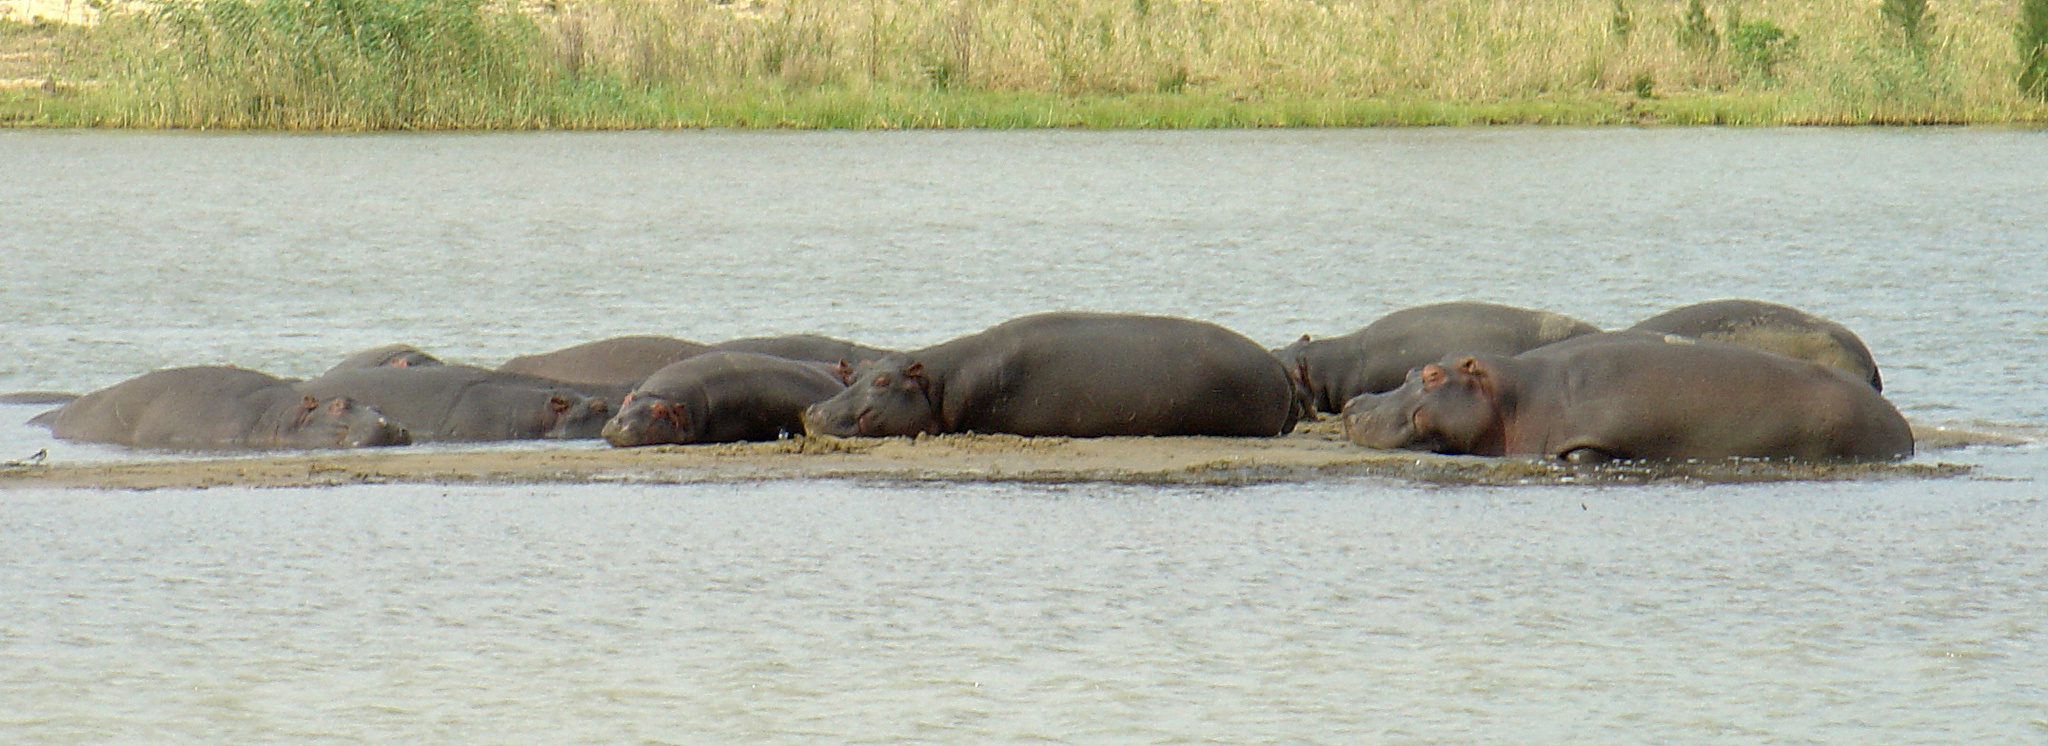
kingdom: Animalia
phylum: Chordata
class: Mammalia
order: Artiodactyla
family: Hippopotamidae
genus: Hippopotamus
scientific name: Hippopotamus amphibius
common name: Common hippopotamus
